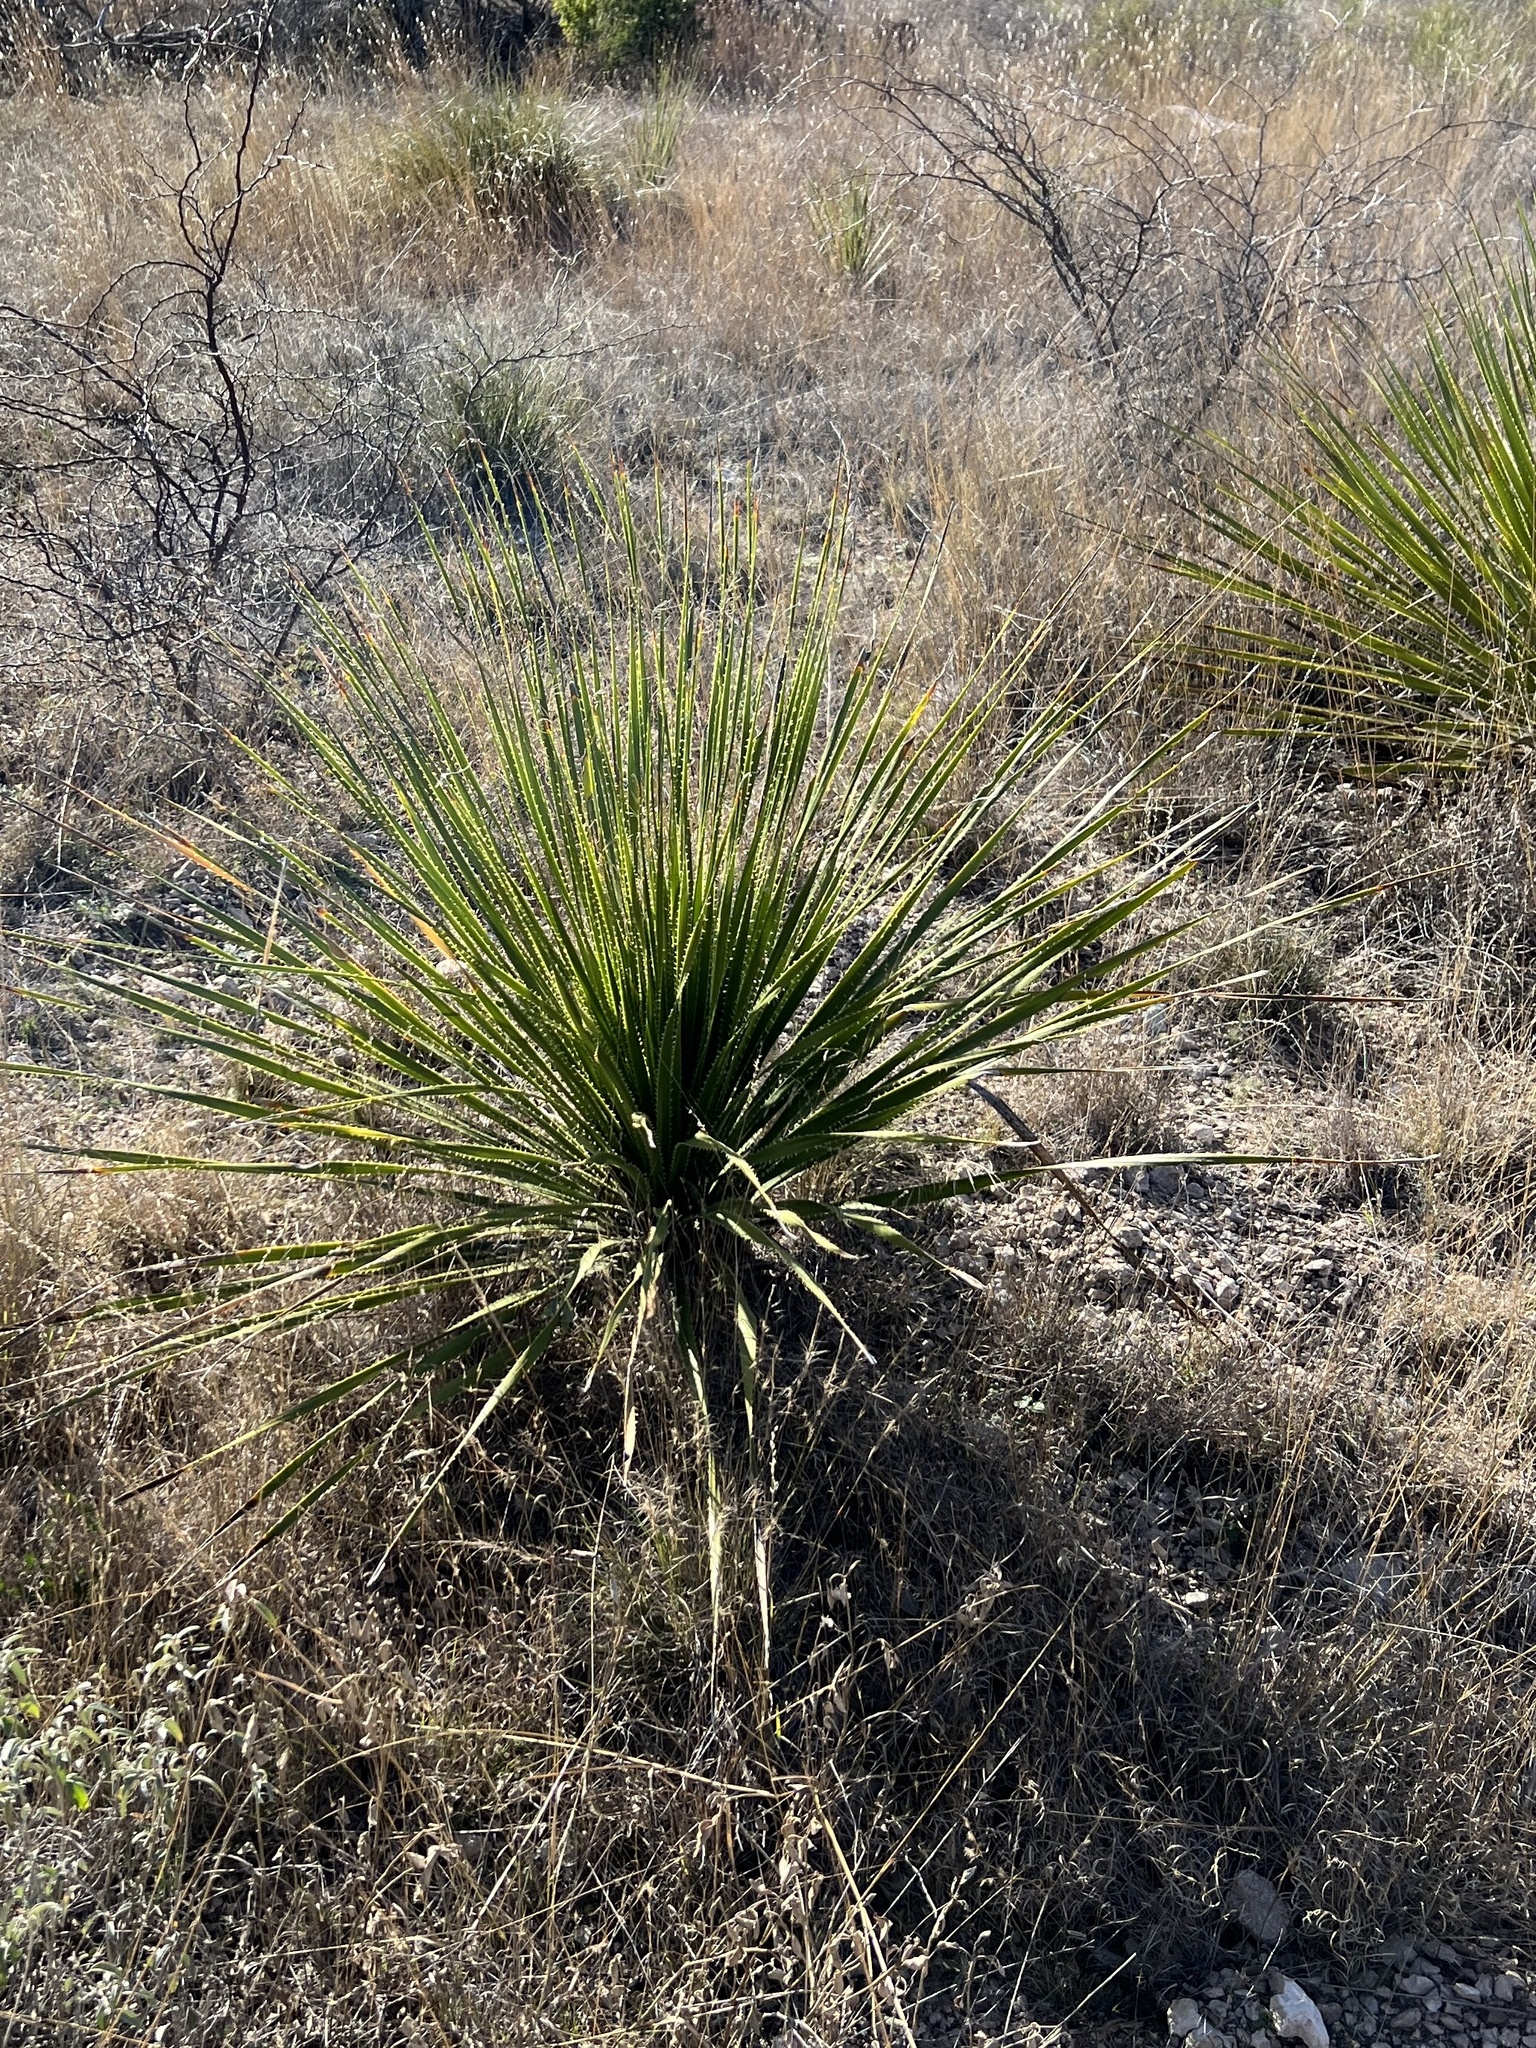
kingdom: Plantae
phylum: Tracheophyta
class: Liliopsida
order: Asparagales
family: Asparagaceae
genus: Dasylirion
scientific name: Dasylirion texanum
